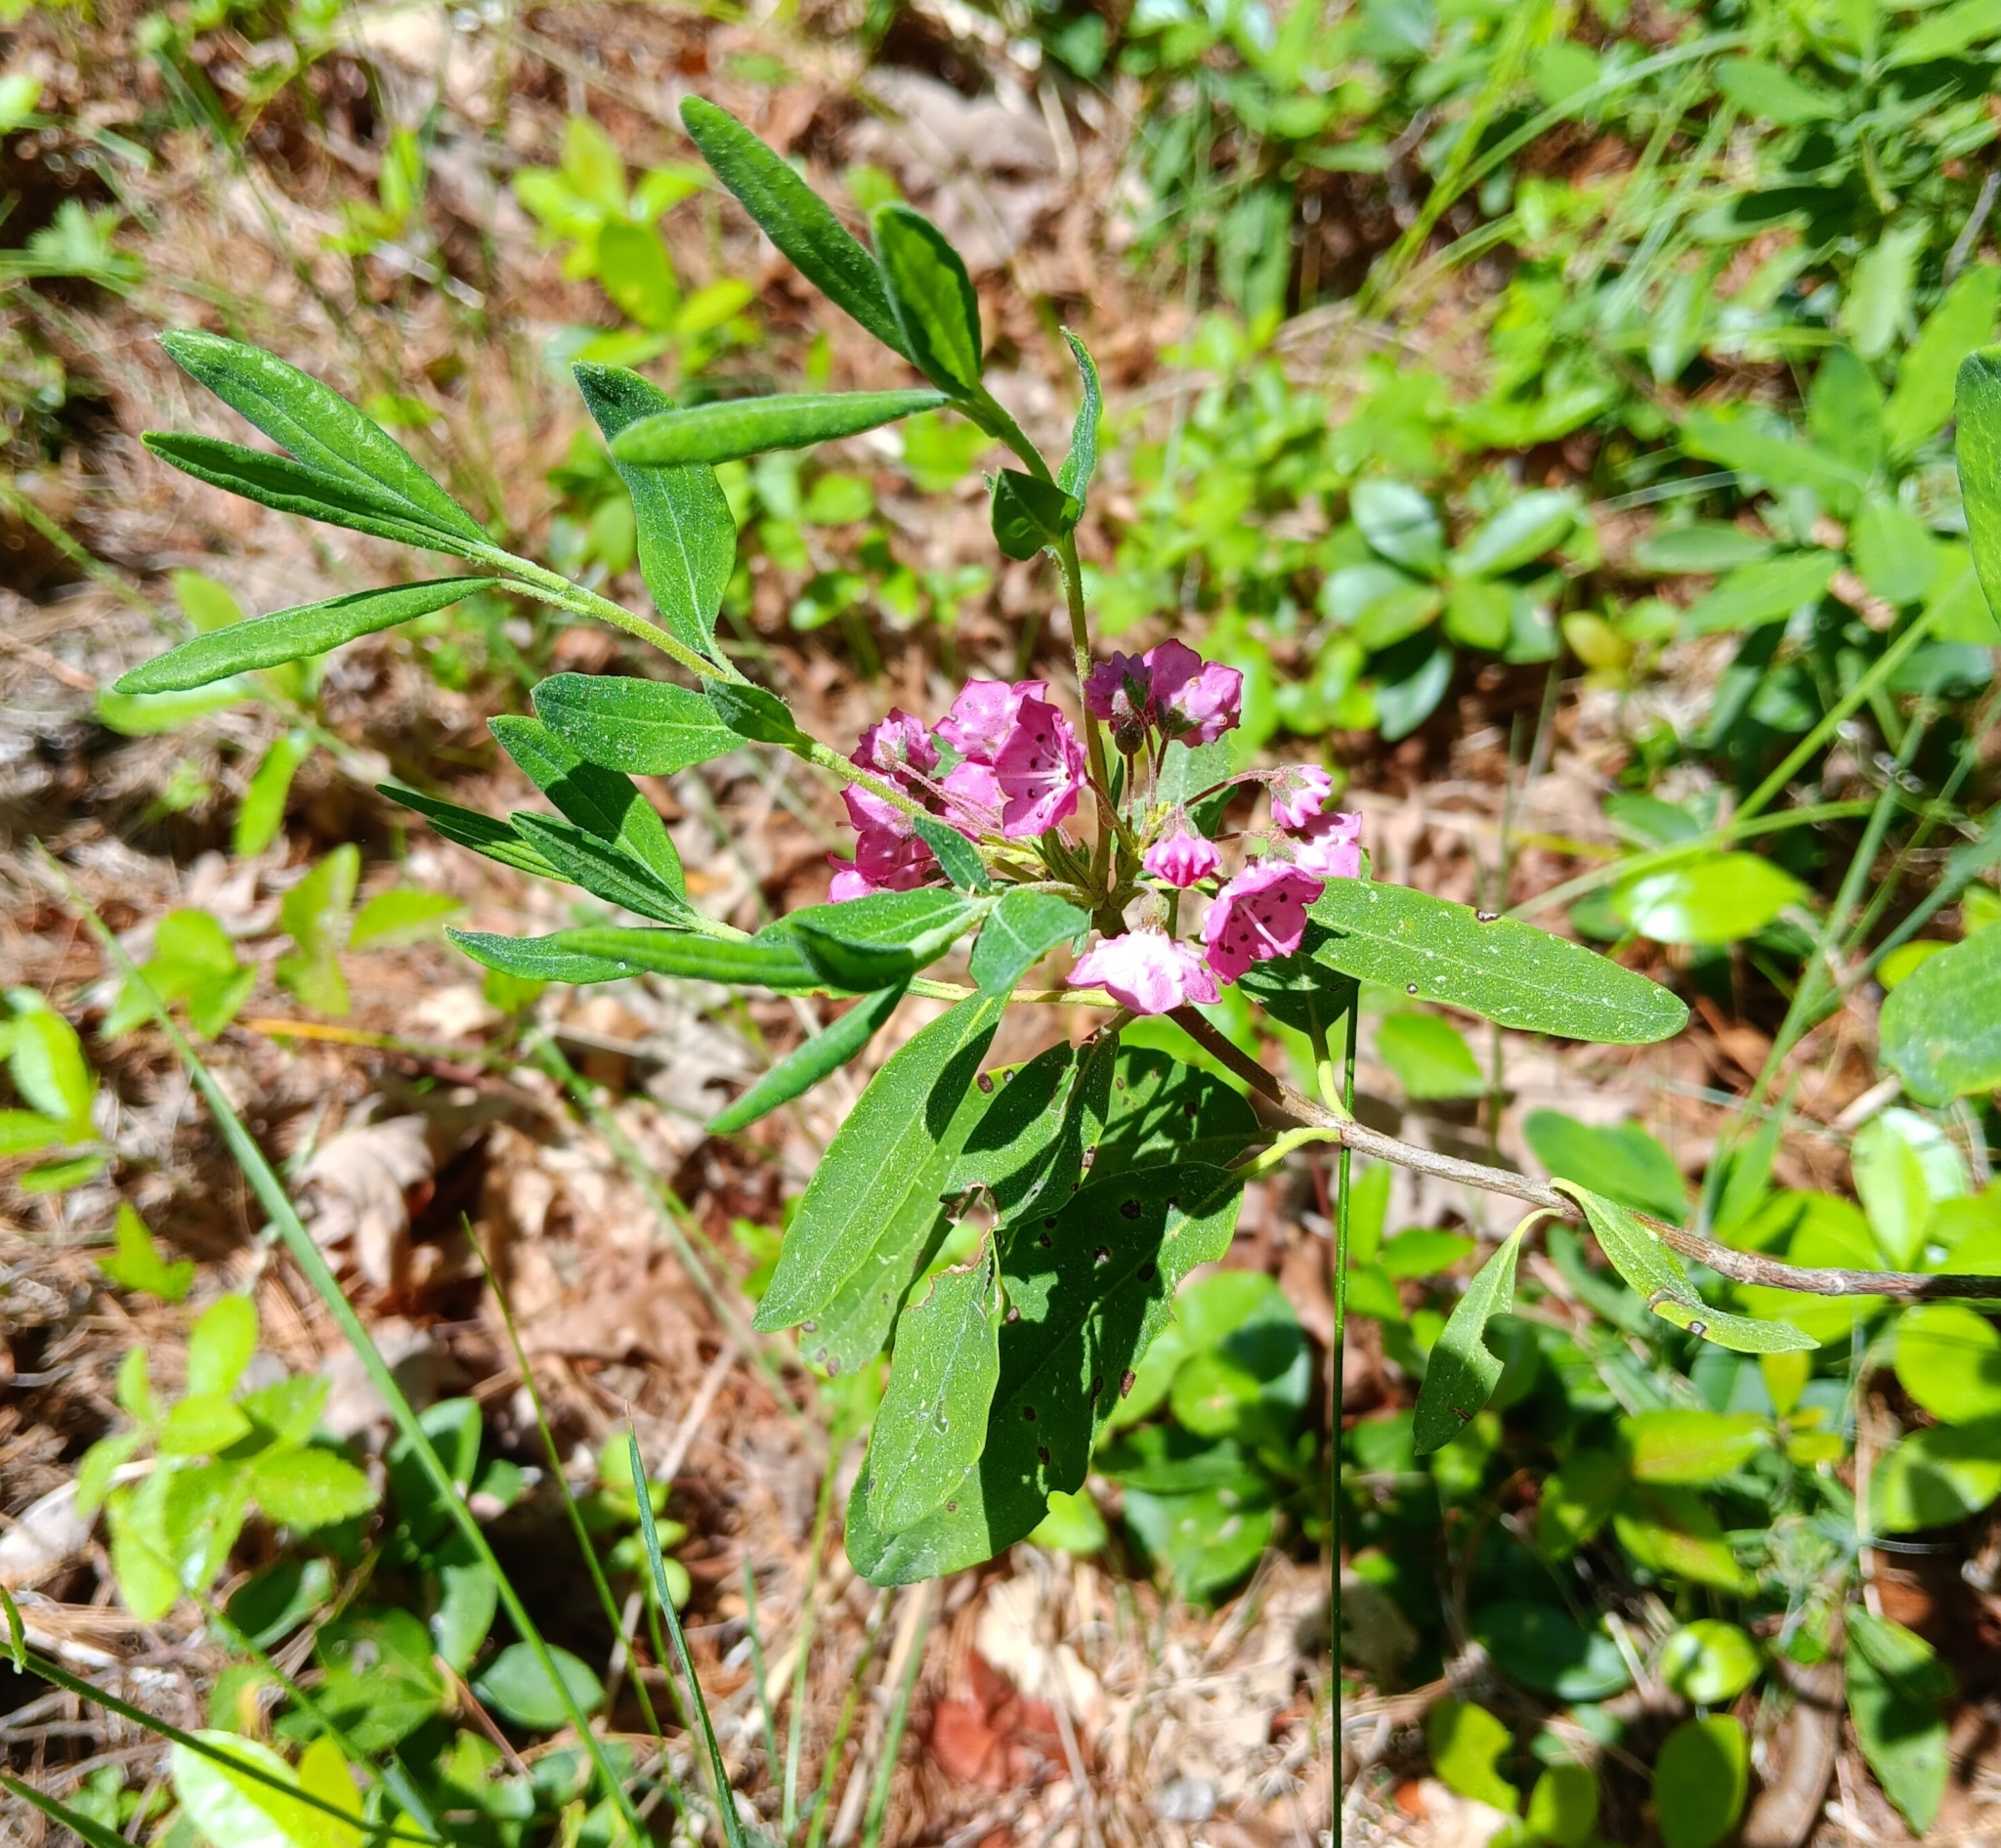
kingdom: Plantae
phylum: Tracheophyta
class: Magnoliopsida
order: Ericales
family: Ericaceae
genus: Kalmia
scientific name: Kalmia angustifolia
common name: Sheep-laurel
